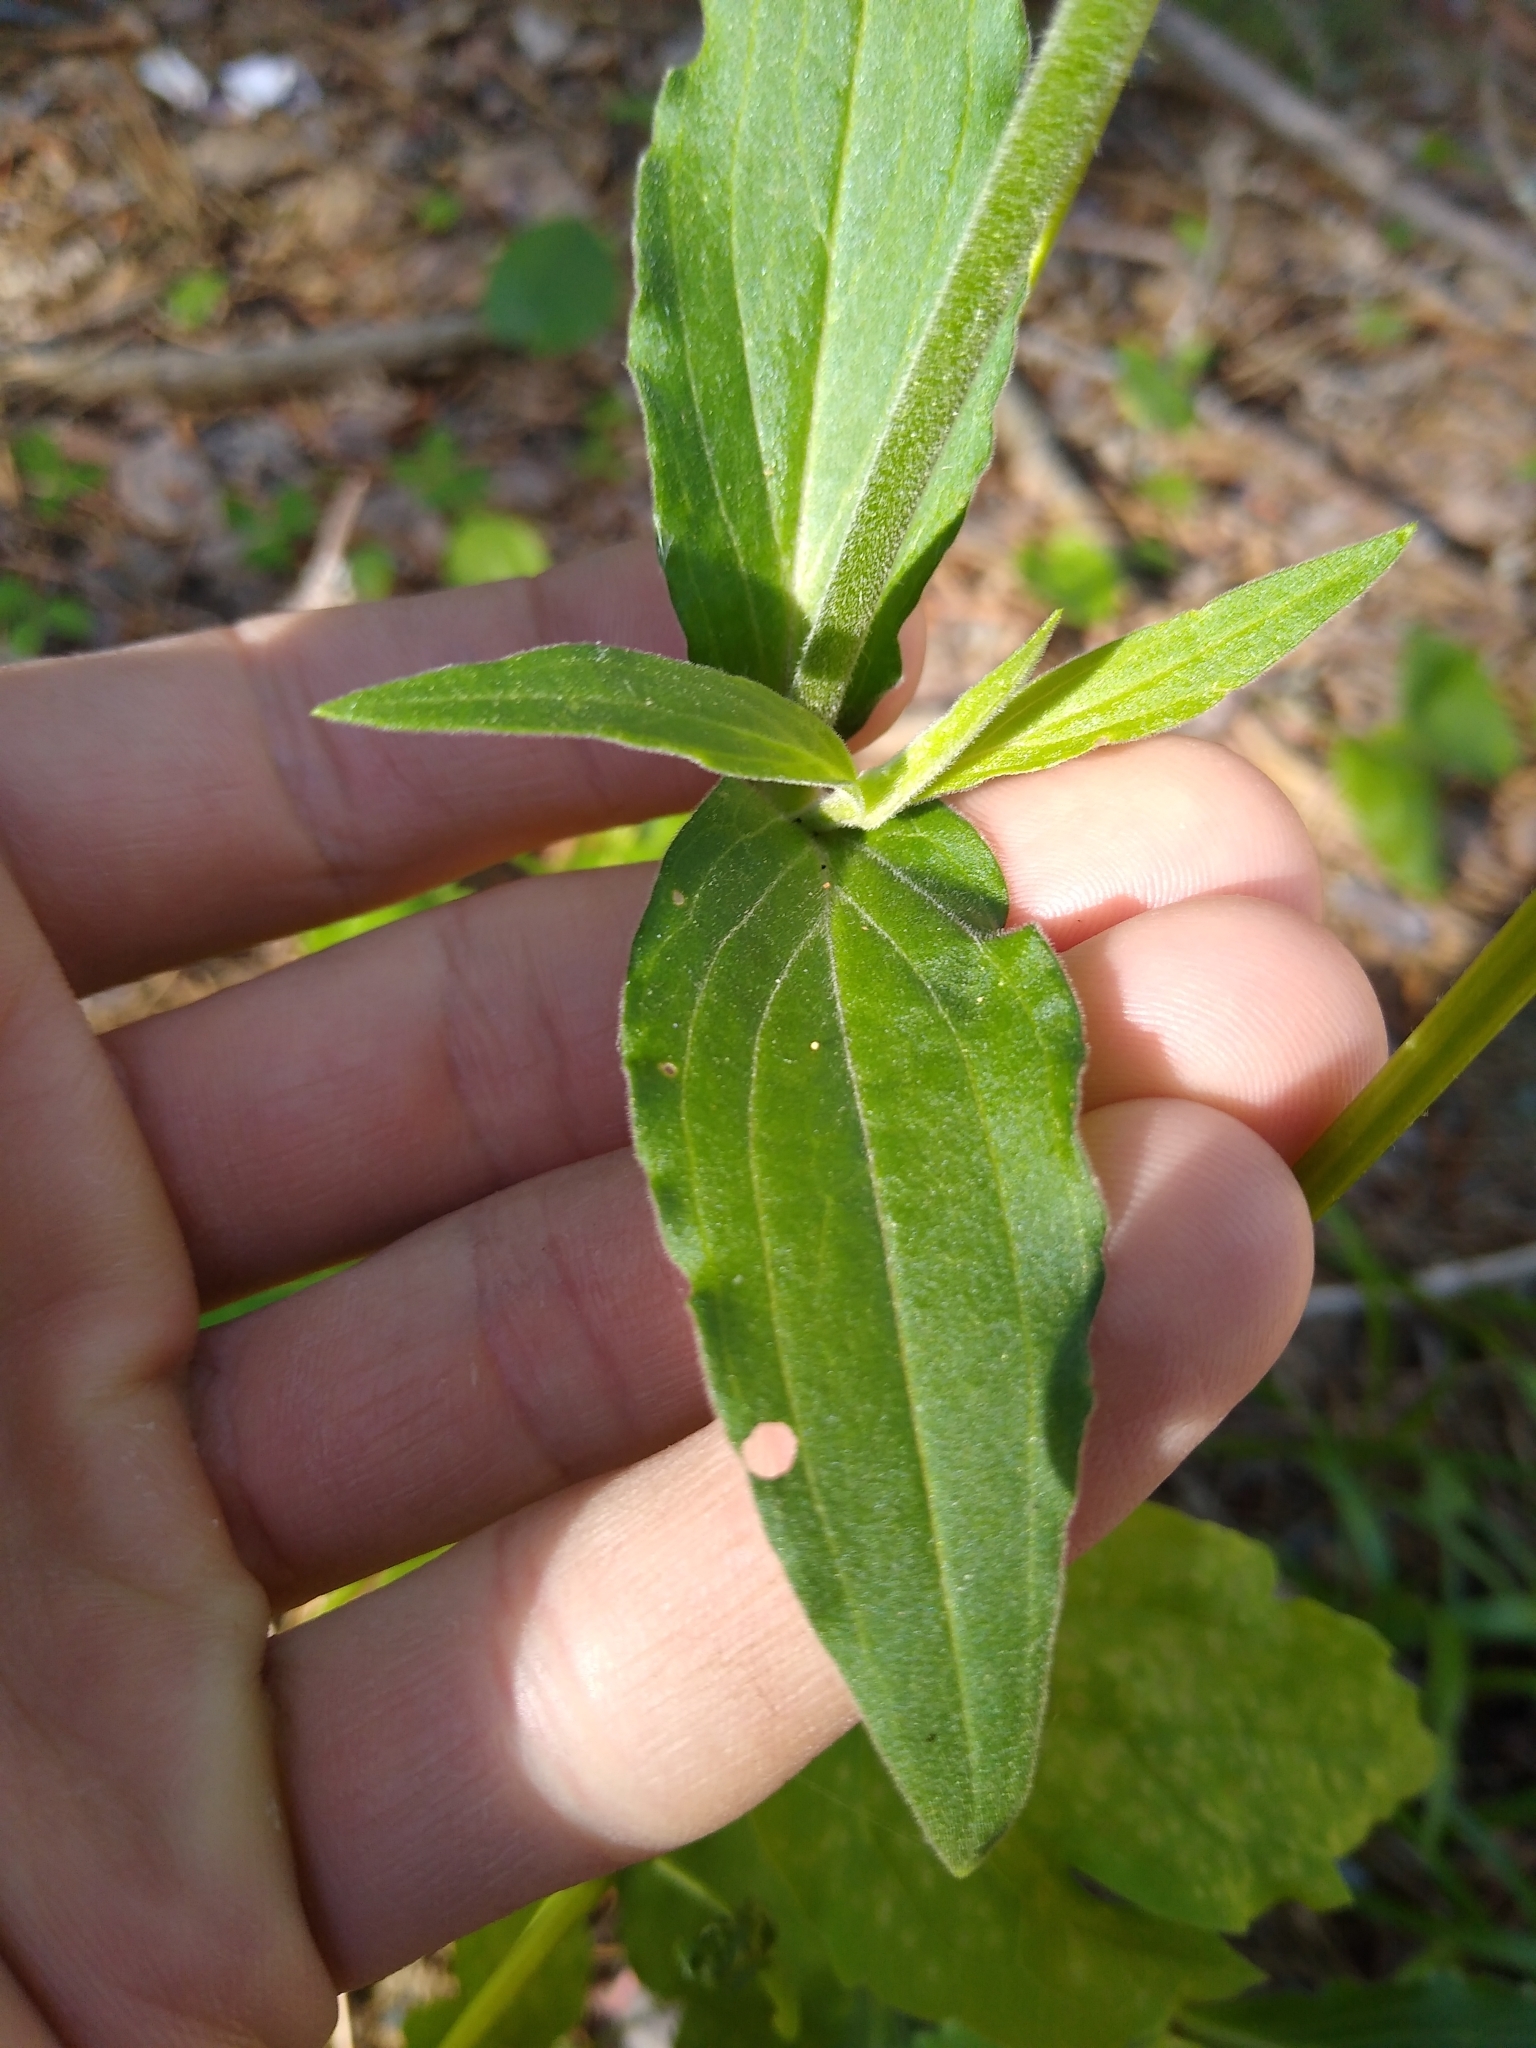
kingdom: Plantae
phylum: Tracheophyta
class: Magnoliopsida
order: Caryophyllales
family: Caryophyllaceae
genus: Silene
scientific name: Silene latifolia
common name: White campion
